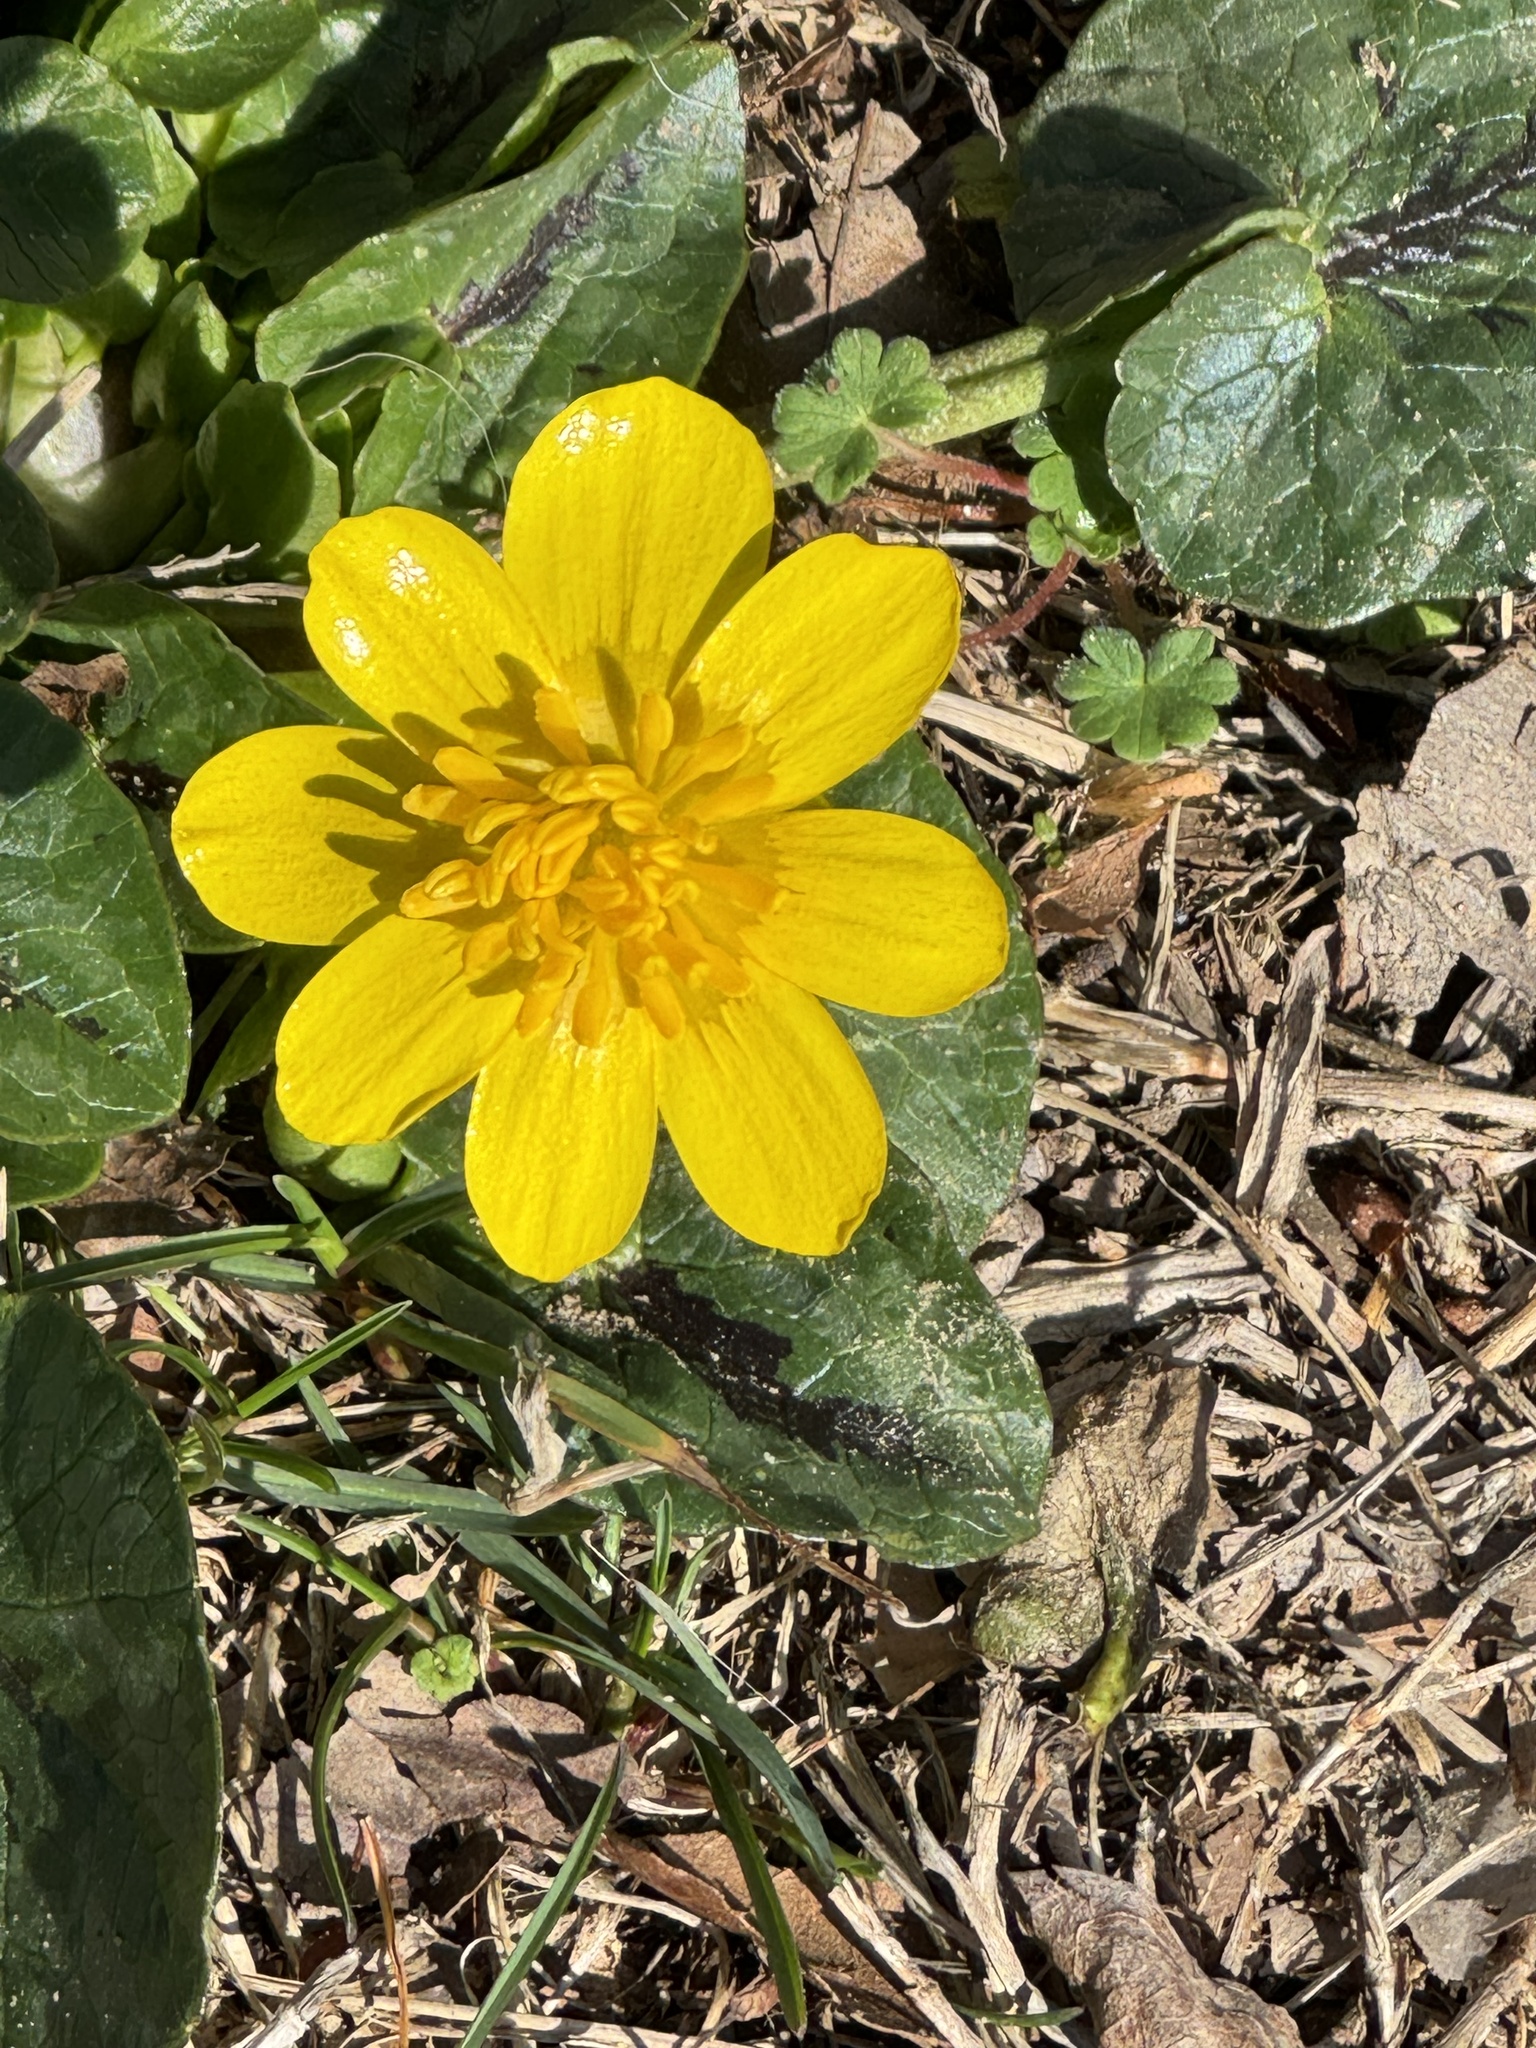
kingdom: Plantae
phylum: Tracheophyta
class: Magnoliopsida
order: Ranunculales
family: Ranunculaceae
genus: Ficaria
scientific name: Ficaria verna
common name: Lesser celandine
